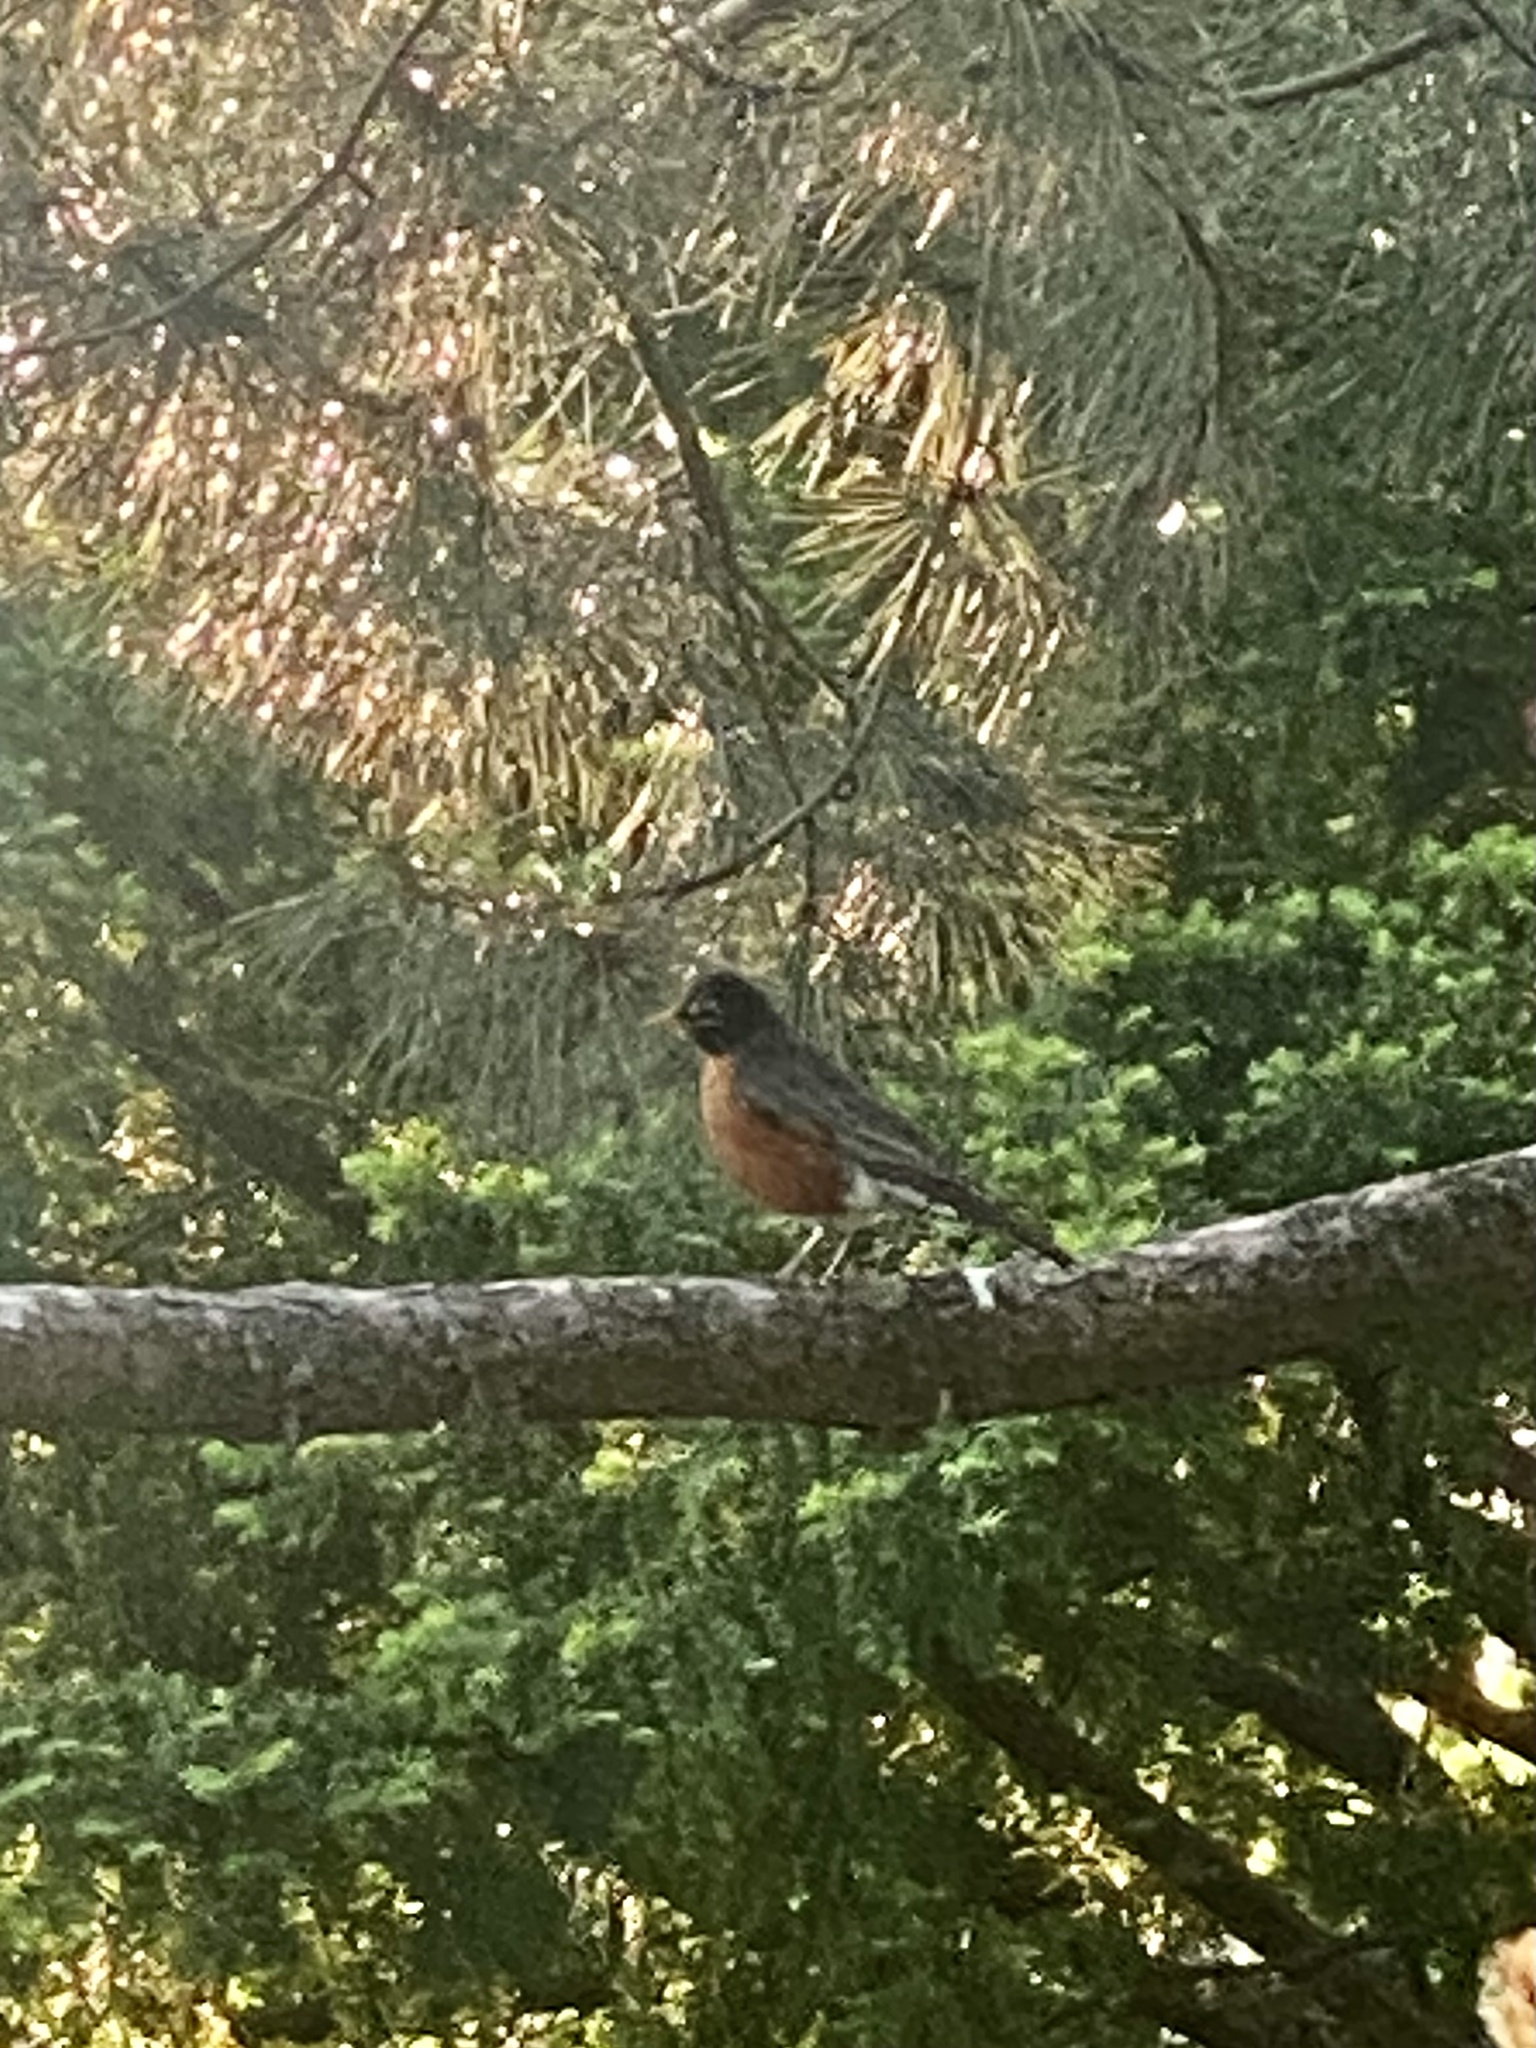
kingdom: Animalia
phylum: Chordata
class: Aves
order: Passeriformes
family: Turdidae
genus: Turdus
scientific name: Turdus migratorius
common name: American robin
